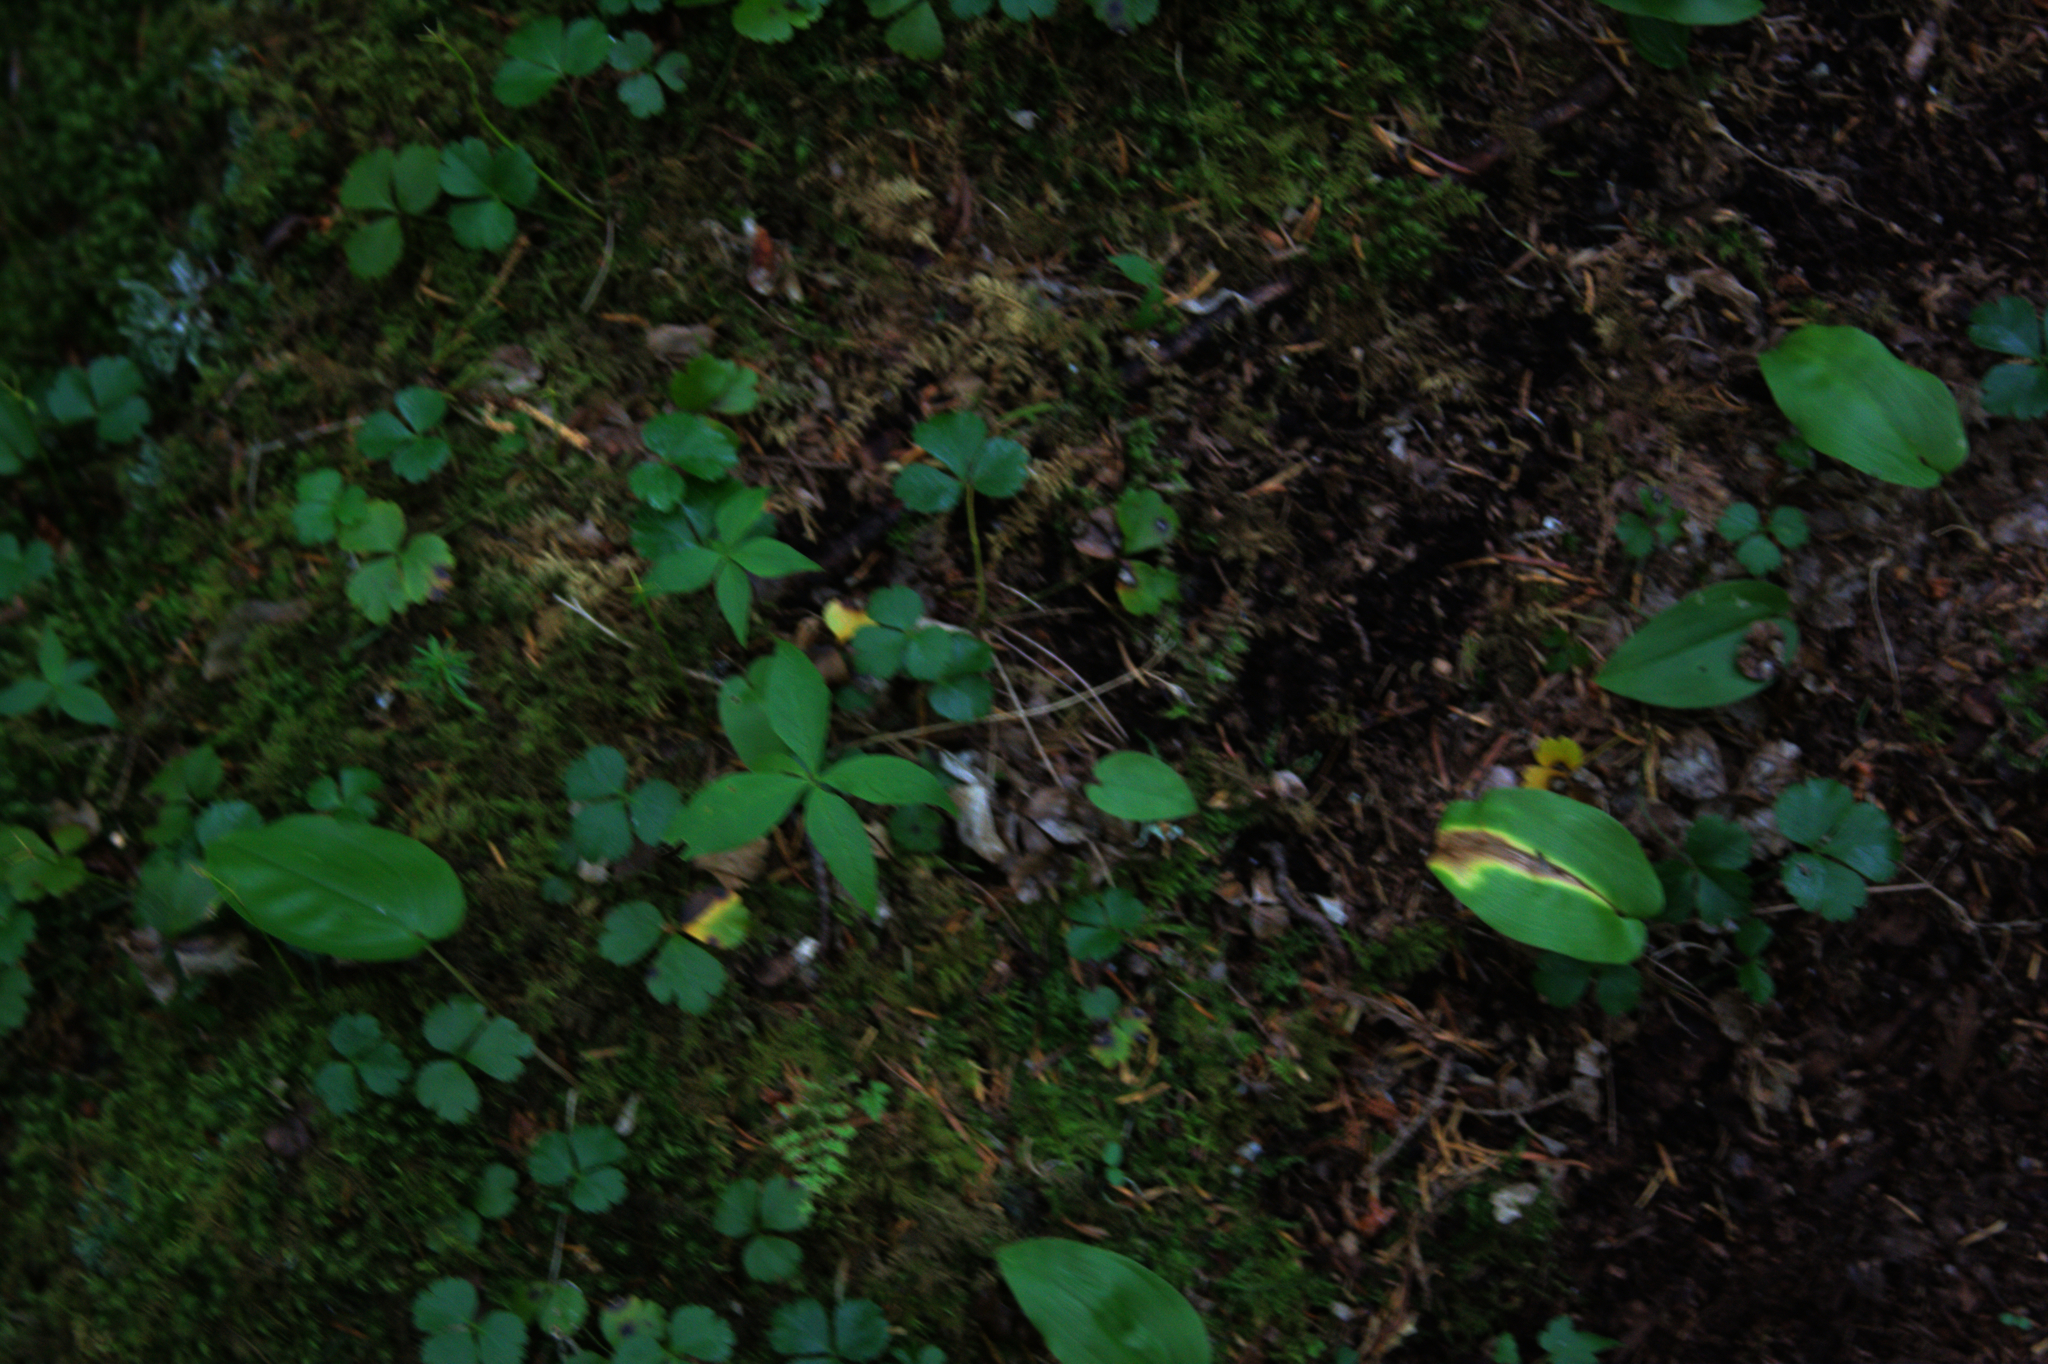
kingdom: Plantae
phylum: Tracheophyta
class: Magnoliopsida
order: Ericales
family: Primulaceae
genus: Lysimachia
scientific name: Lysimachia borealis
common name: American starflower
